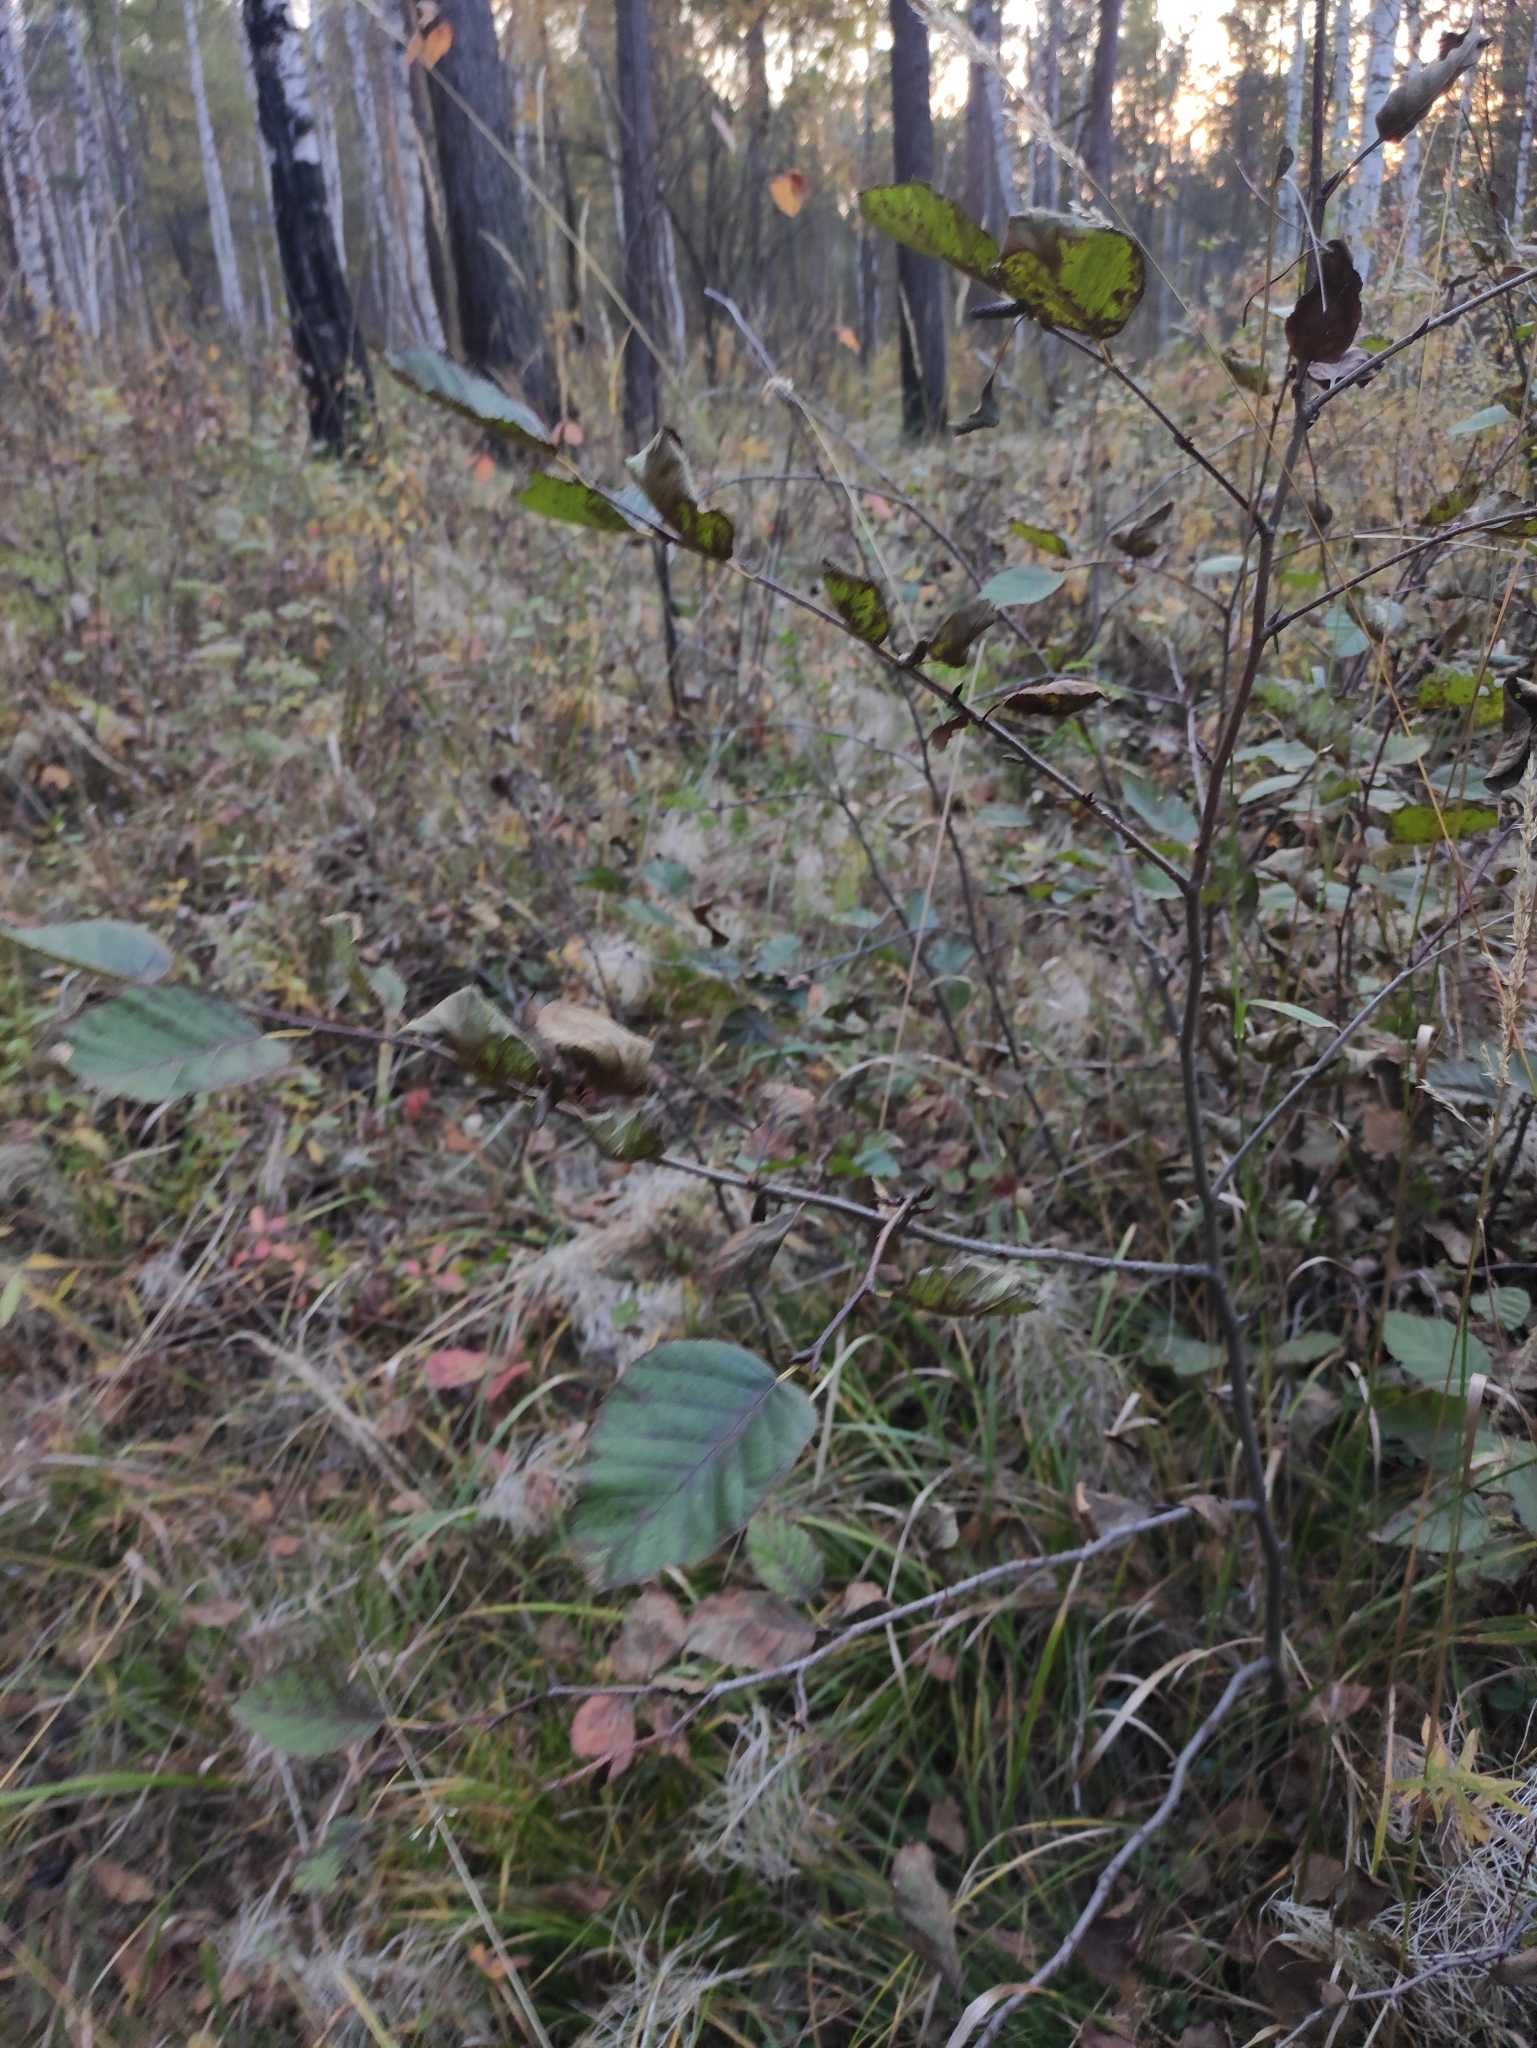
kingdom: Plantae
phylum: Tracheophyta
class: Magnoliopsida
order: Fagales
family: Betulaceae
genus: Alnus
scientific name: Alnus alnobetula
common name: Green alder
